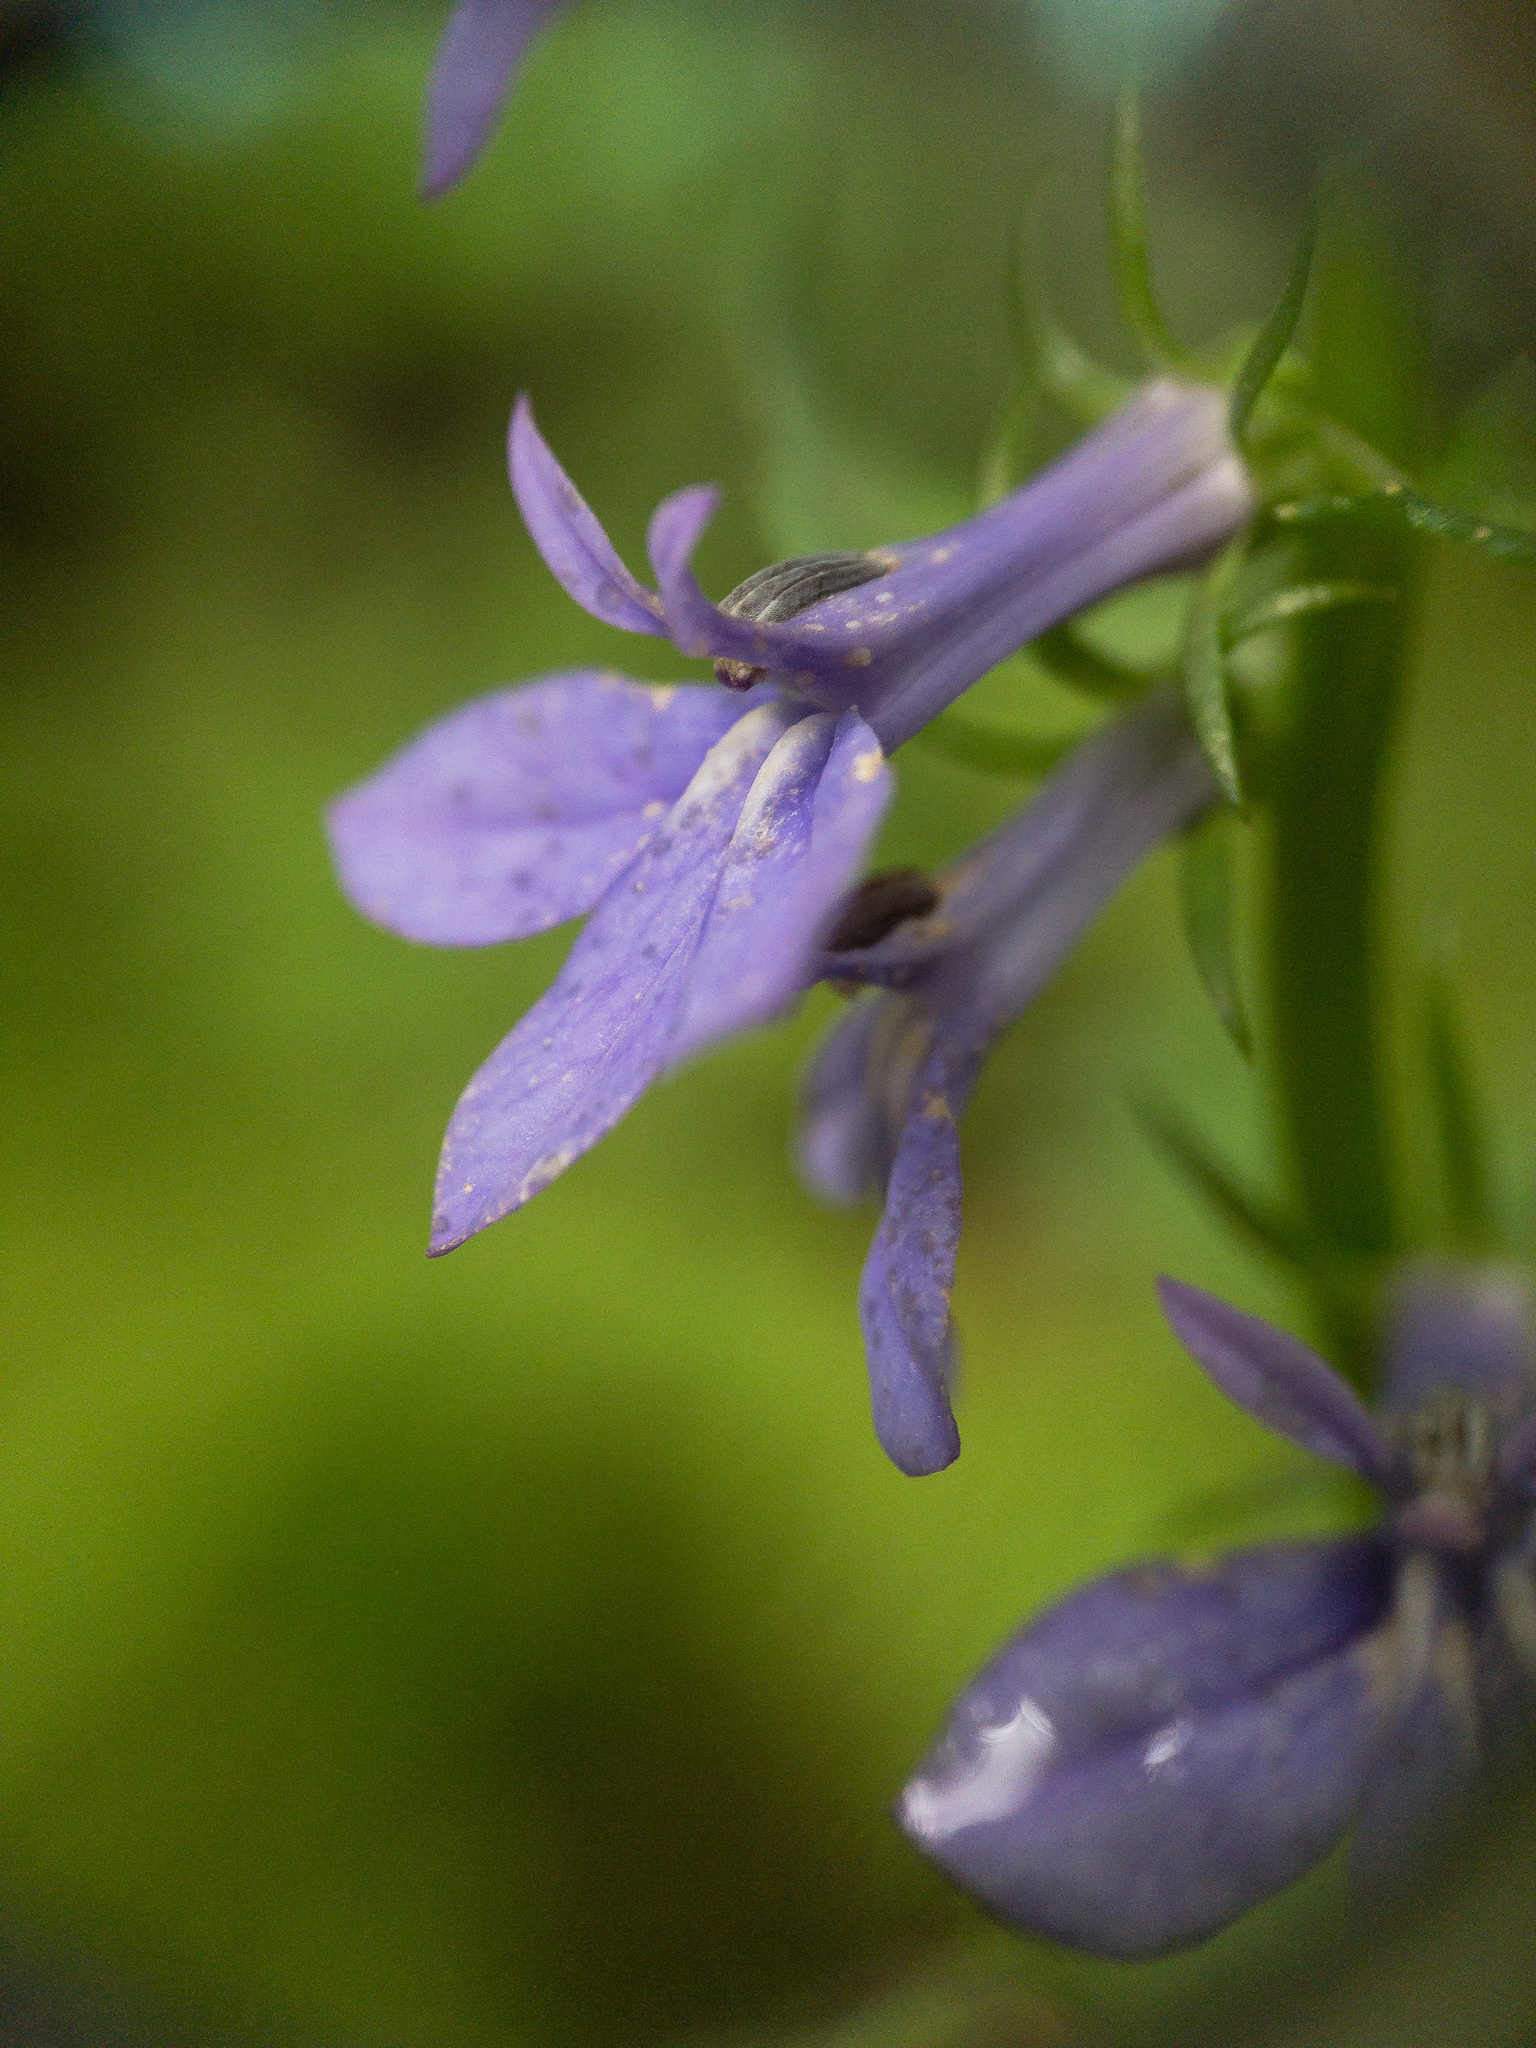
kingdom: Plantae
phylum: Tracheophyta
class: Magnoliopsida
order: Asterales
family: Campanulaceae
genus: Lobelia
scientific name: Lobelia amoena
